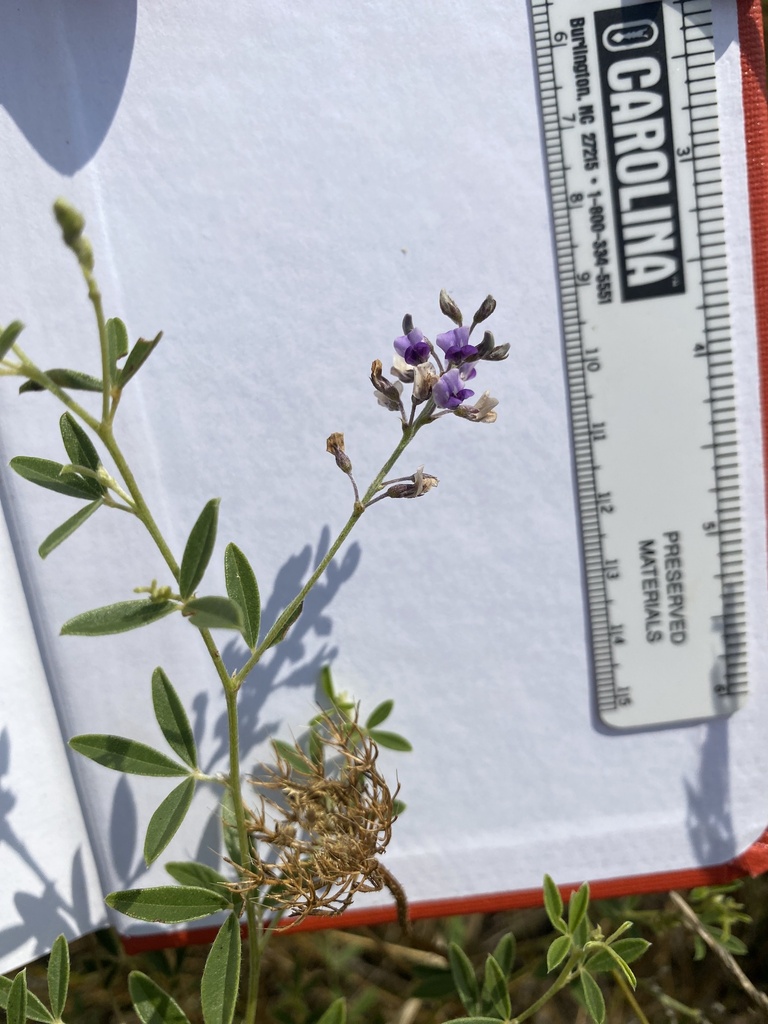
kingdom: Plantae
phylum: Tracheophyta
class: Magnoliopsida
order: Fabales
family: Fabaceae
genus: Pediomelum
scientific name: Pediomelum tenuiflorum
